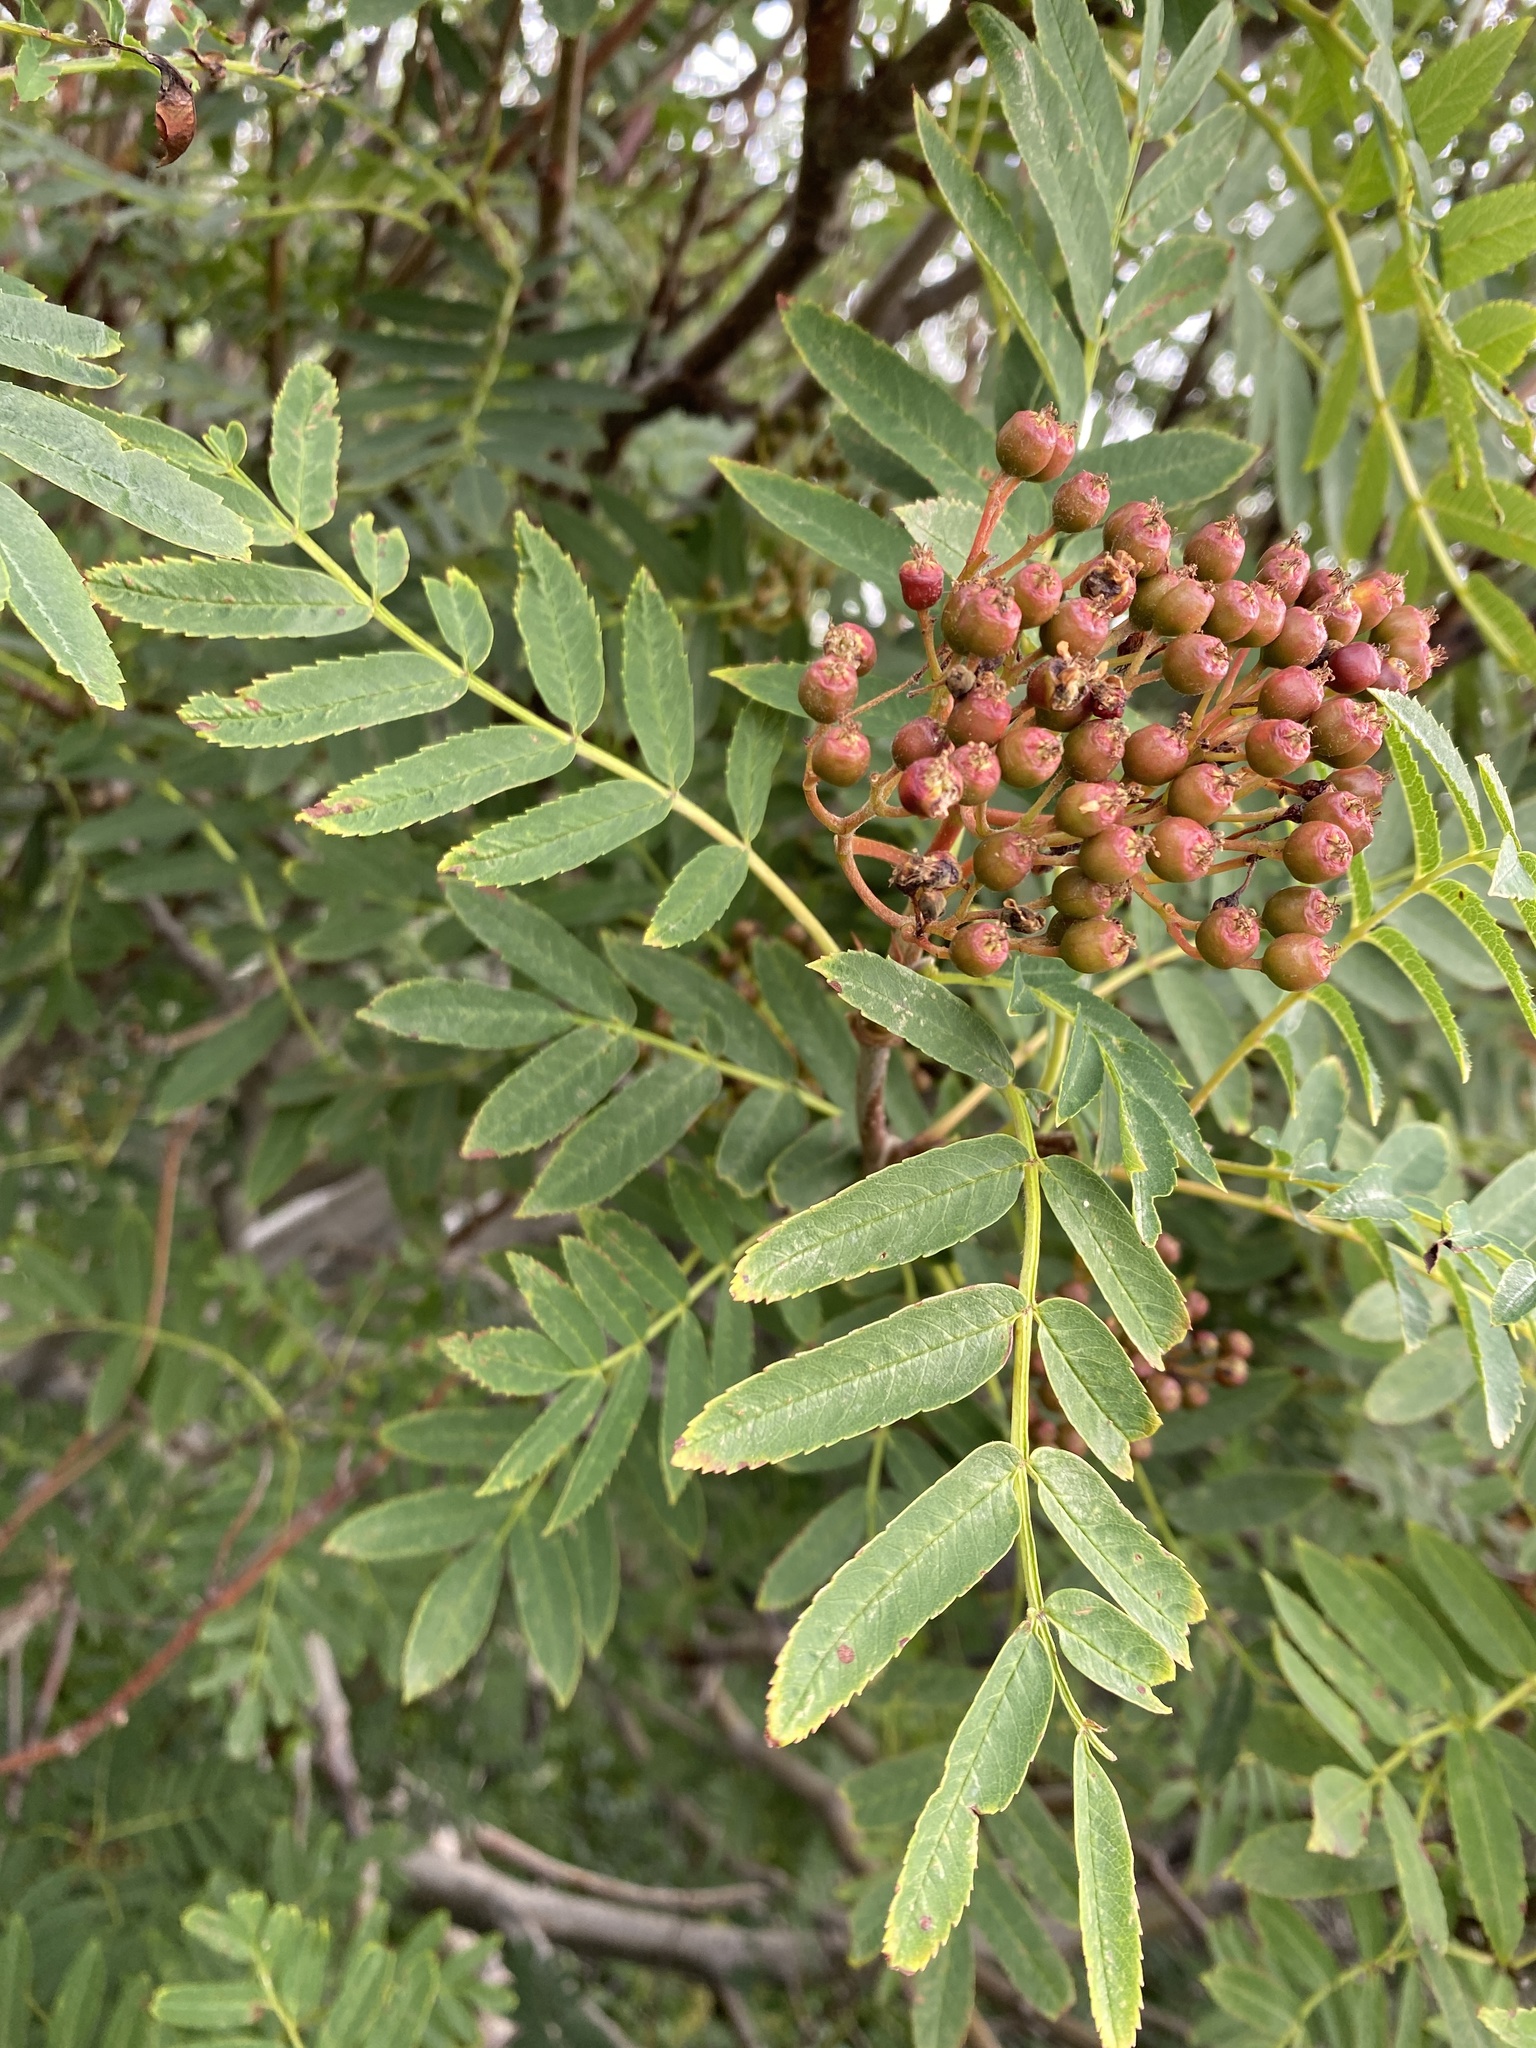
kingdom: Plantae
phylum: Tracheophyta
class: Magnoliopsida
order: Rosales
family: Rosaceae
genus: Sorbus
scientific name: Sorbus aucuparia
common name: Rowan
